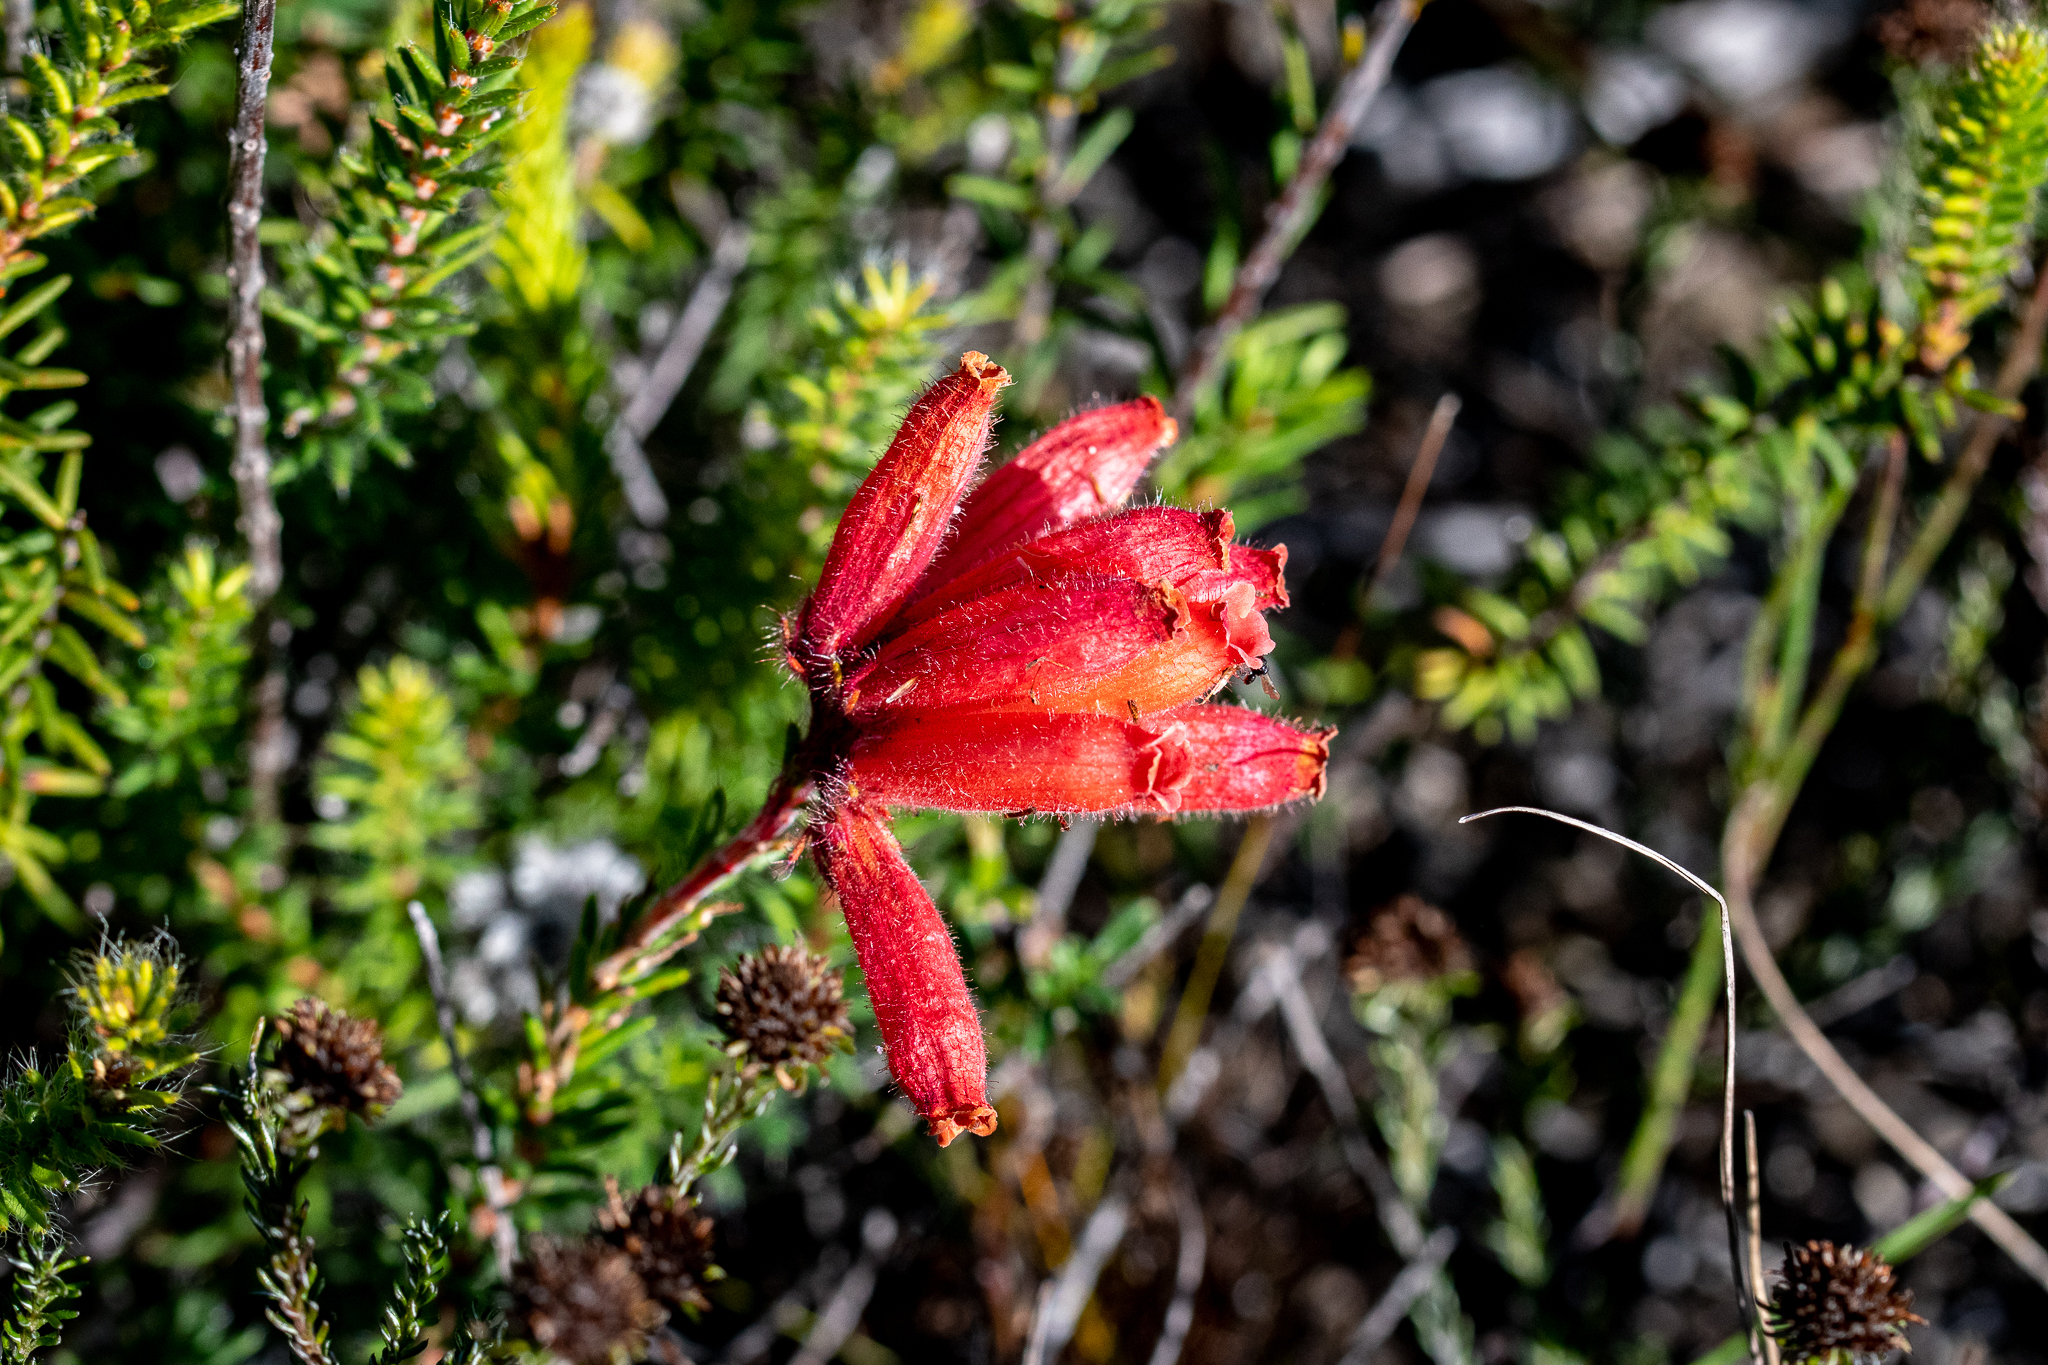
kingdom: Plantae
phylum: Tracheophyta
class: Magnoliopsida
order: Ericales
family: Ericaceae
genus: Erica
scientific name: Erica cerinthoides
